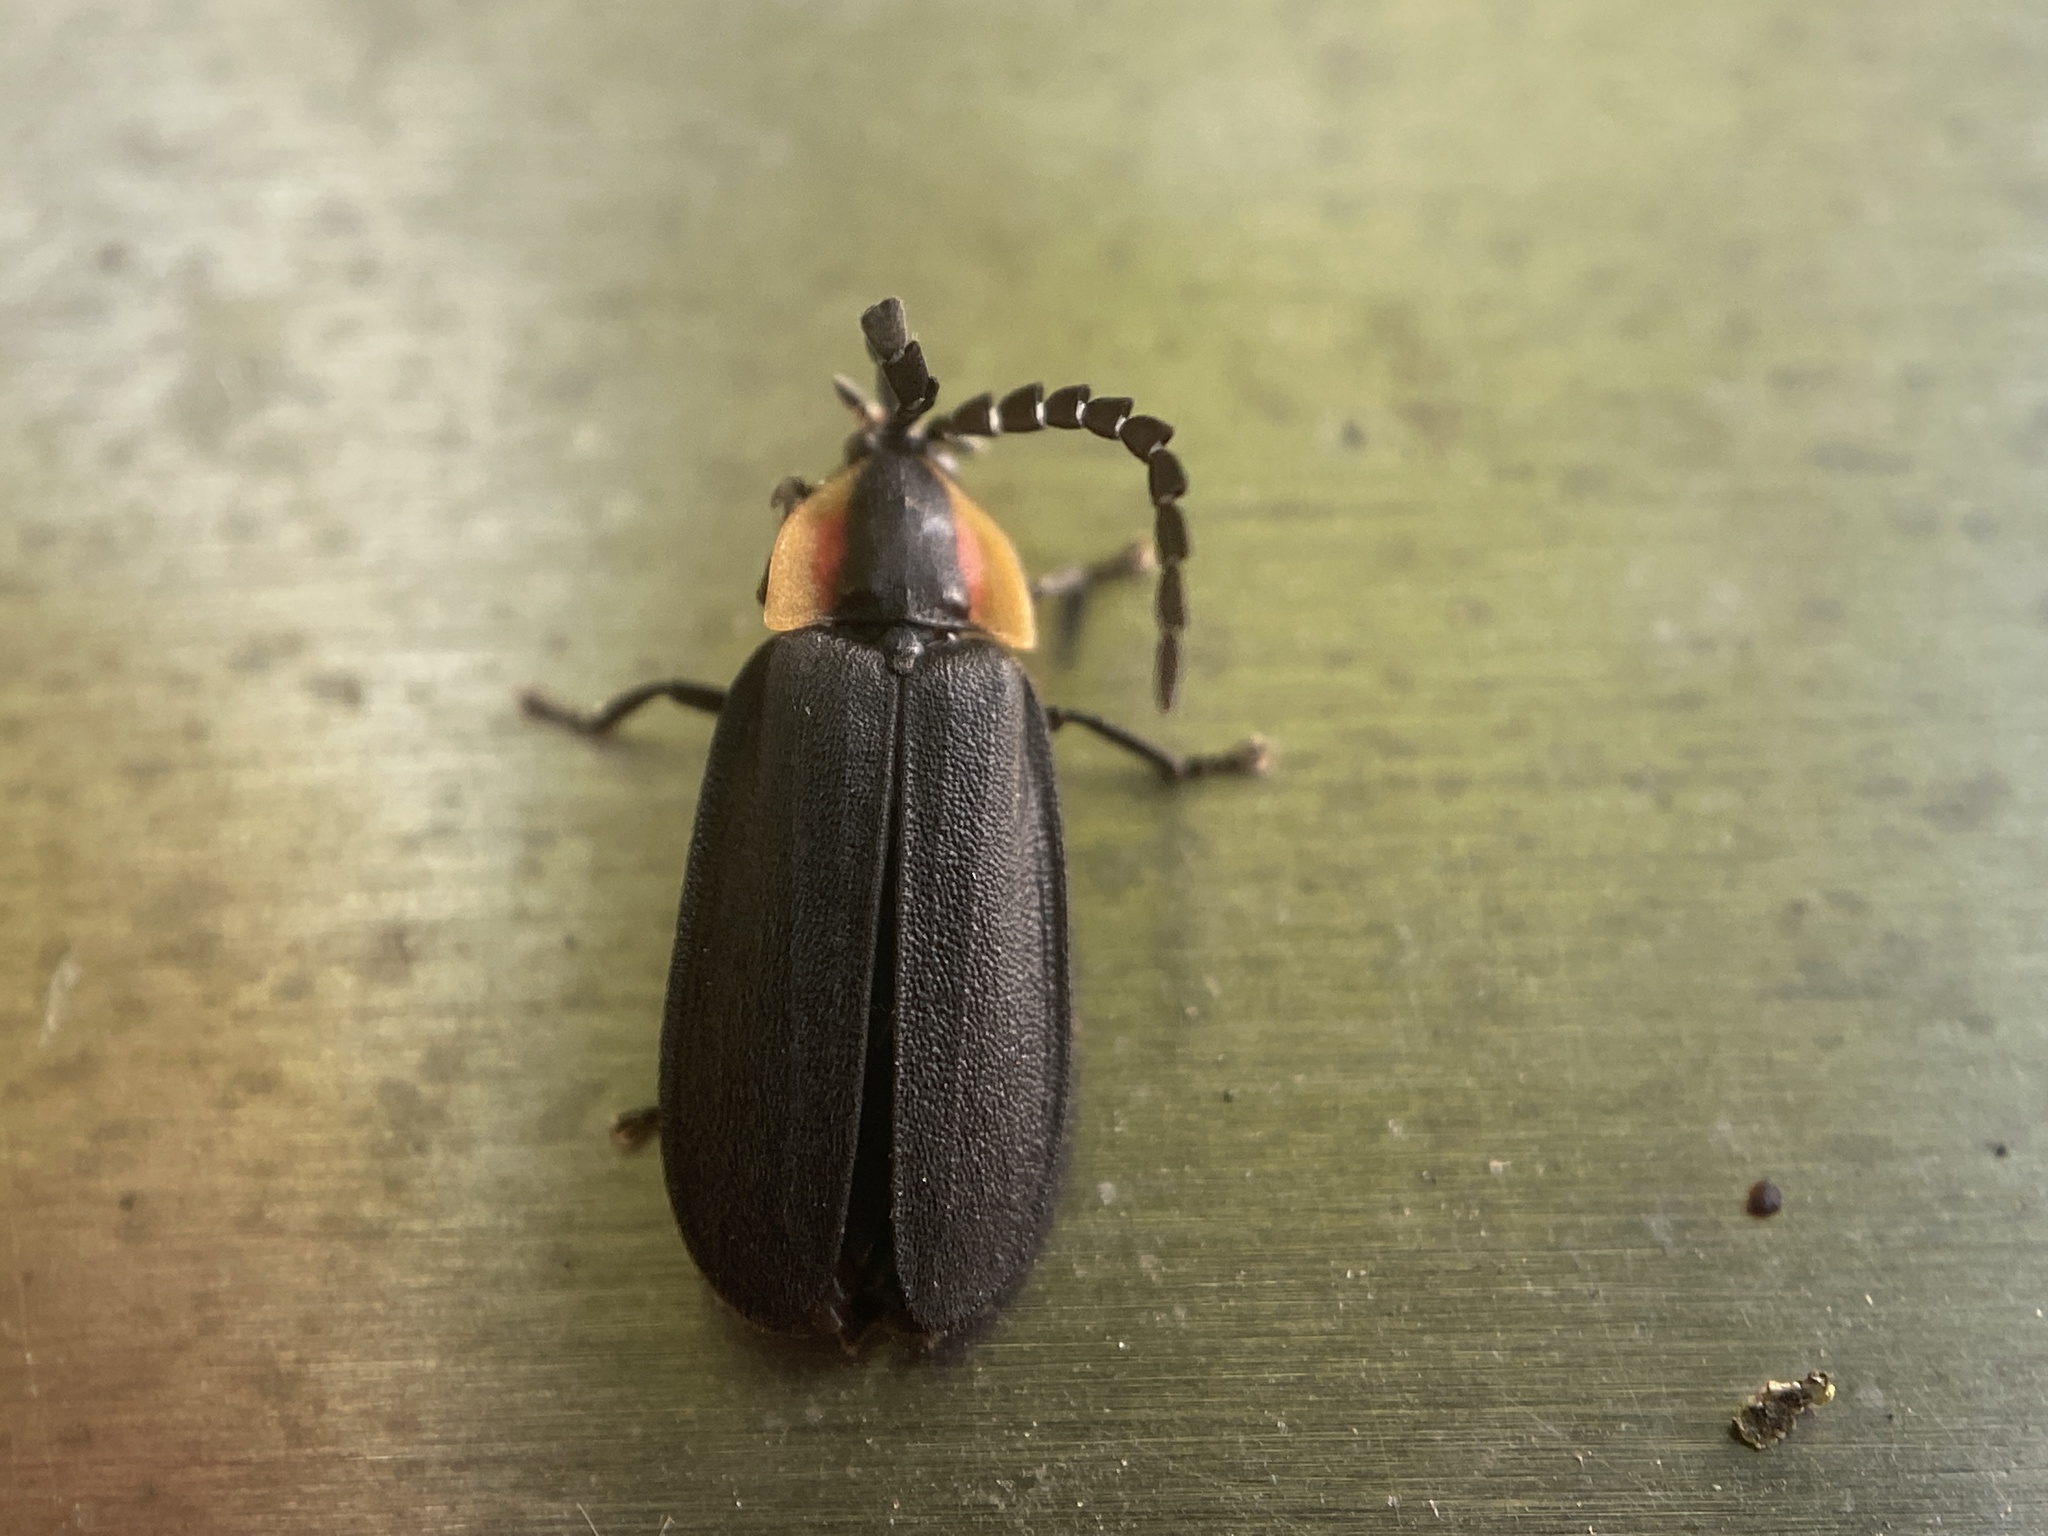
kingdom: Animalia
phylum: Arthropoda
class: Insecta
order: Coleoptera
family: Lampyridae
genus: Lucidota
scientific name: Lucidota atra
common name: Black firefly
